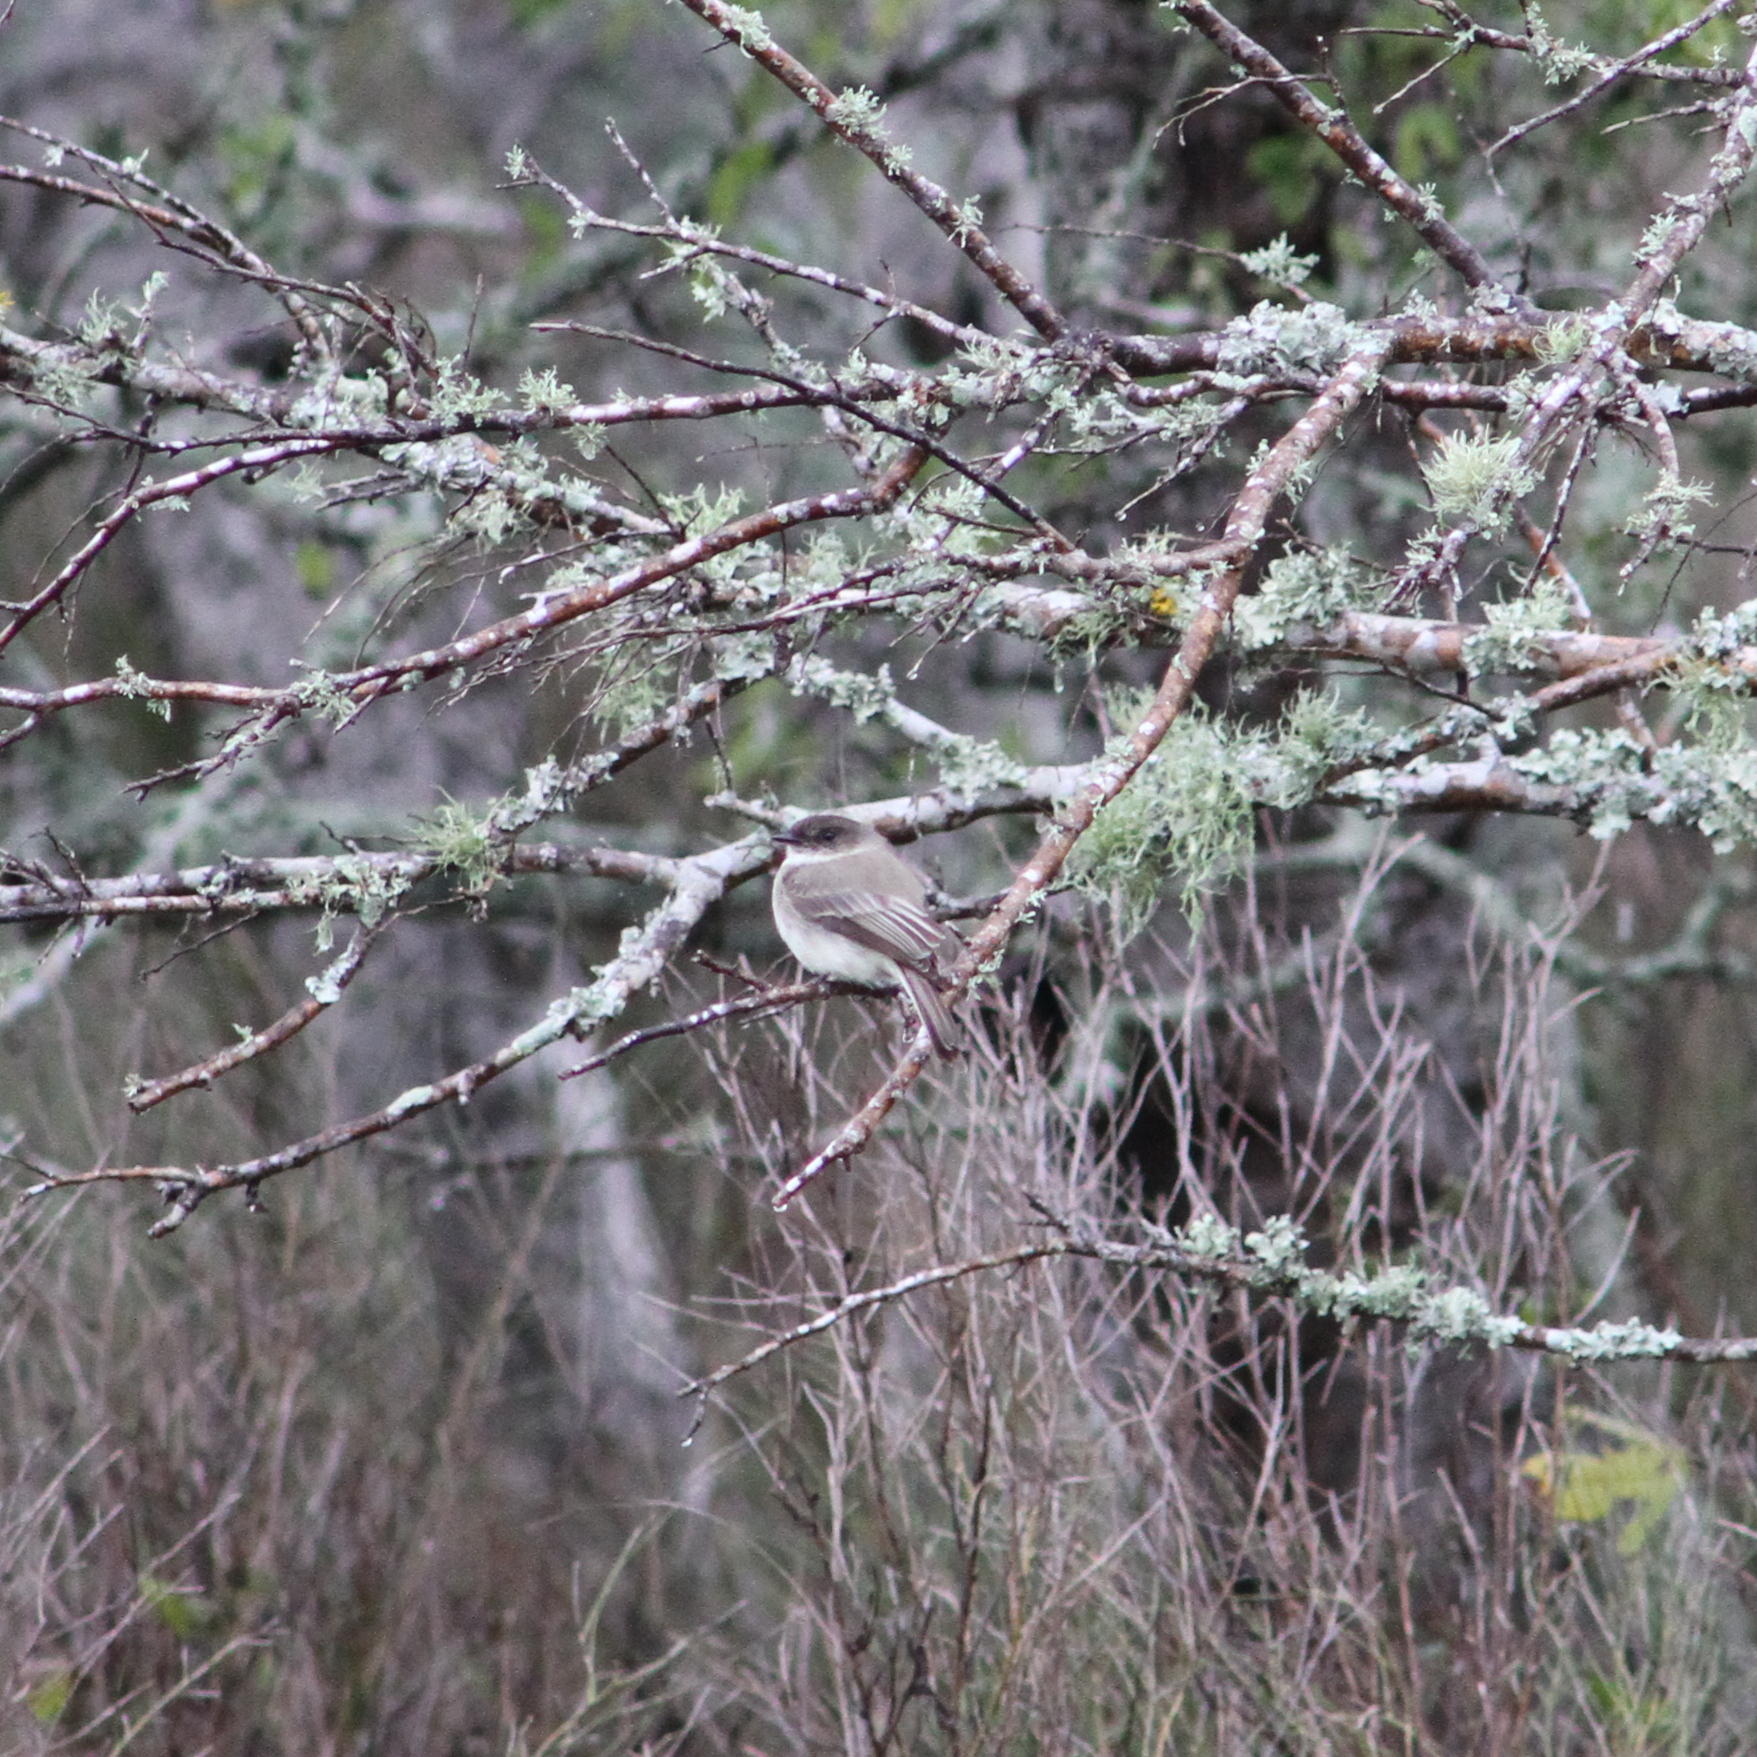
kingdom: Animalia
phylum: Chordata
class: Aves
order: Passeriformes
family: Tyrannidae
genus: Sayornis
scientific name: Sayornis phoebe
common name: Eastern phoebe
